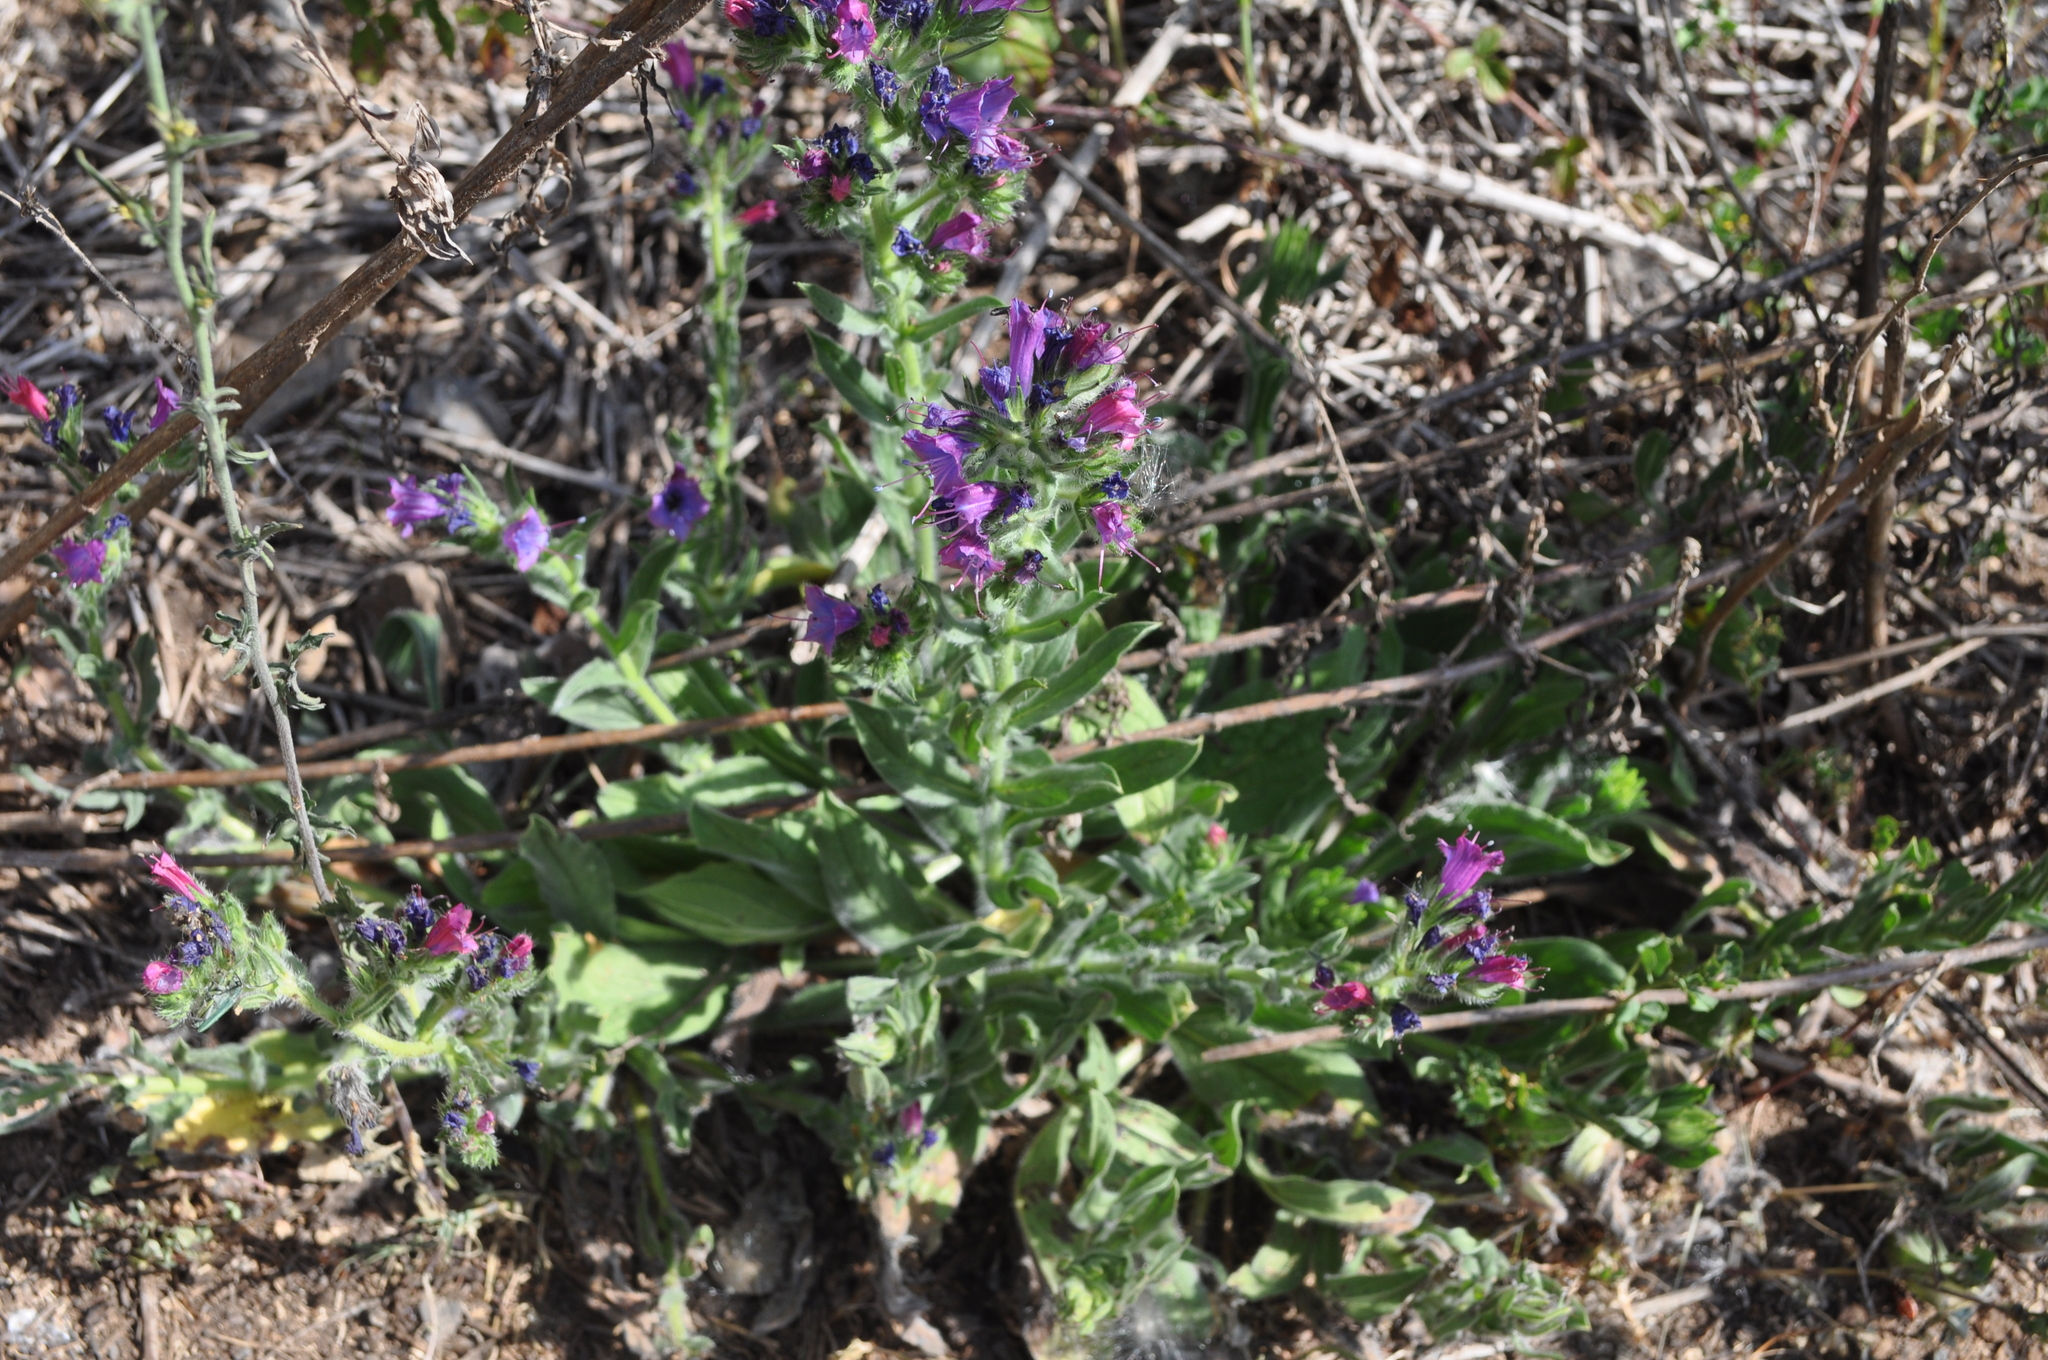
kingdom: Plantae
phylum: Tracheophyta
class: Magnoliopsida
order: Boraginales
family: Boraginaceae
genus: Echium
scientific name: Echium plantagineum
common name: Purple viper's-bugloss
